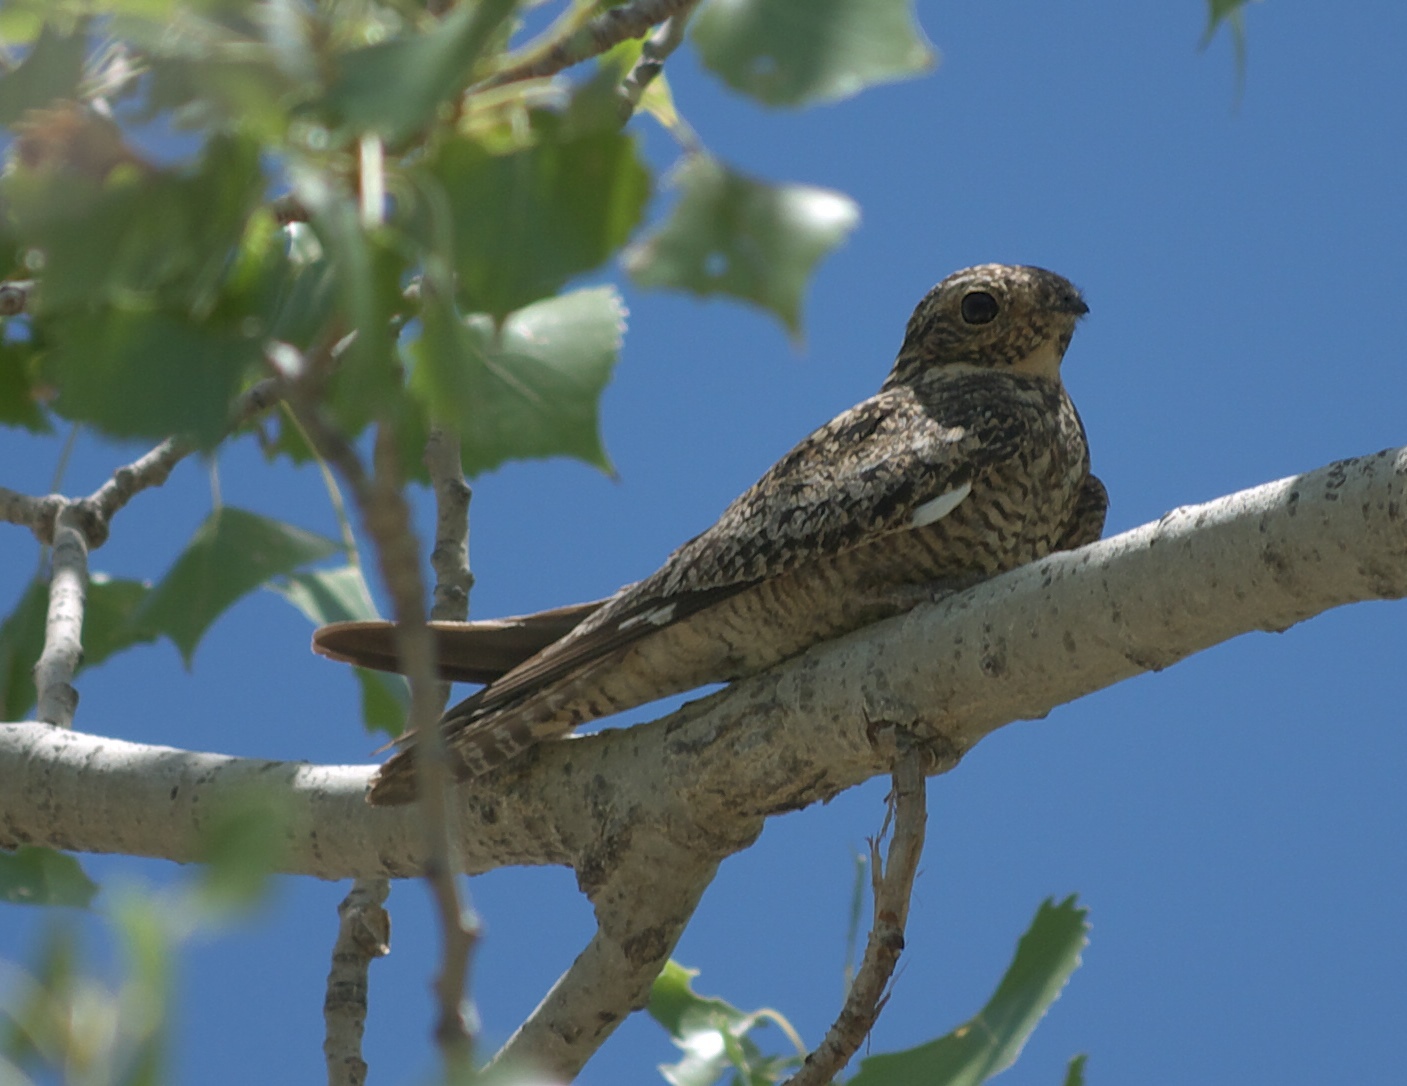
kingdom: Animalia
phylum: Chordata
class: Aves
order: Caprimulgiformes
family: Caprimulgidae
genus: Chordeiles
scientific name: Chordeiles minor
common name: Common nighthawk
